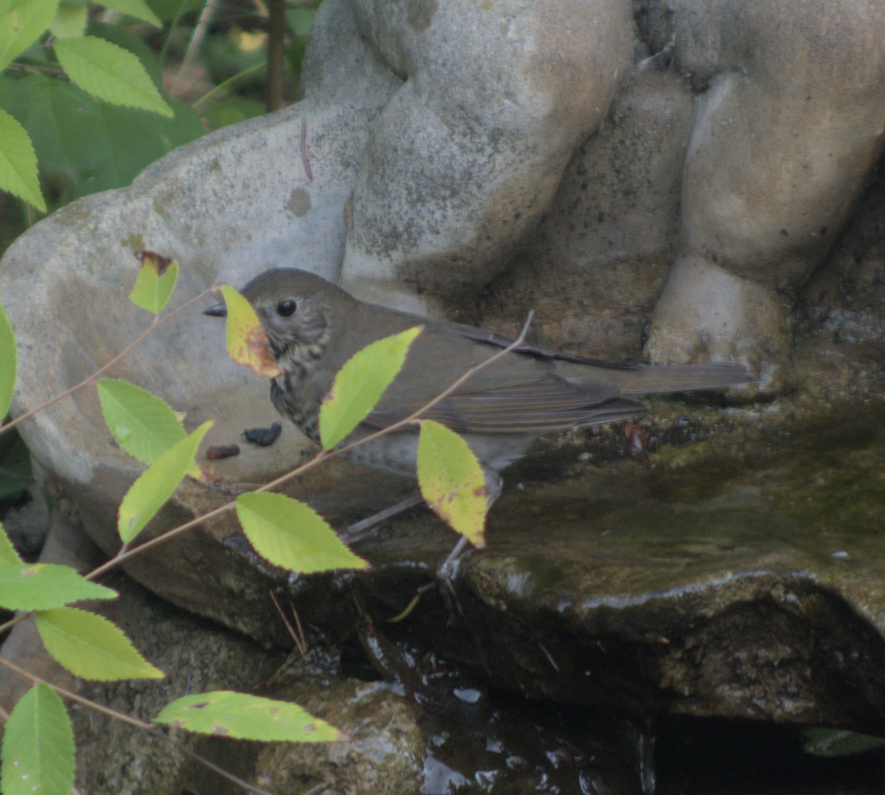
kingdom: Animalia
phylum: Chordata
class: Aves
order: Passeriformes
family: Turdidae
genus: Catharus
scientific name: Catharus minimus
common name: Grey-cheeked thrush
